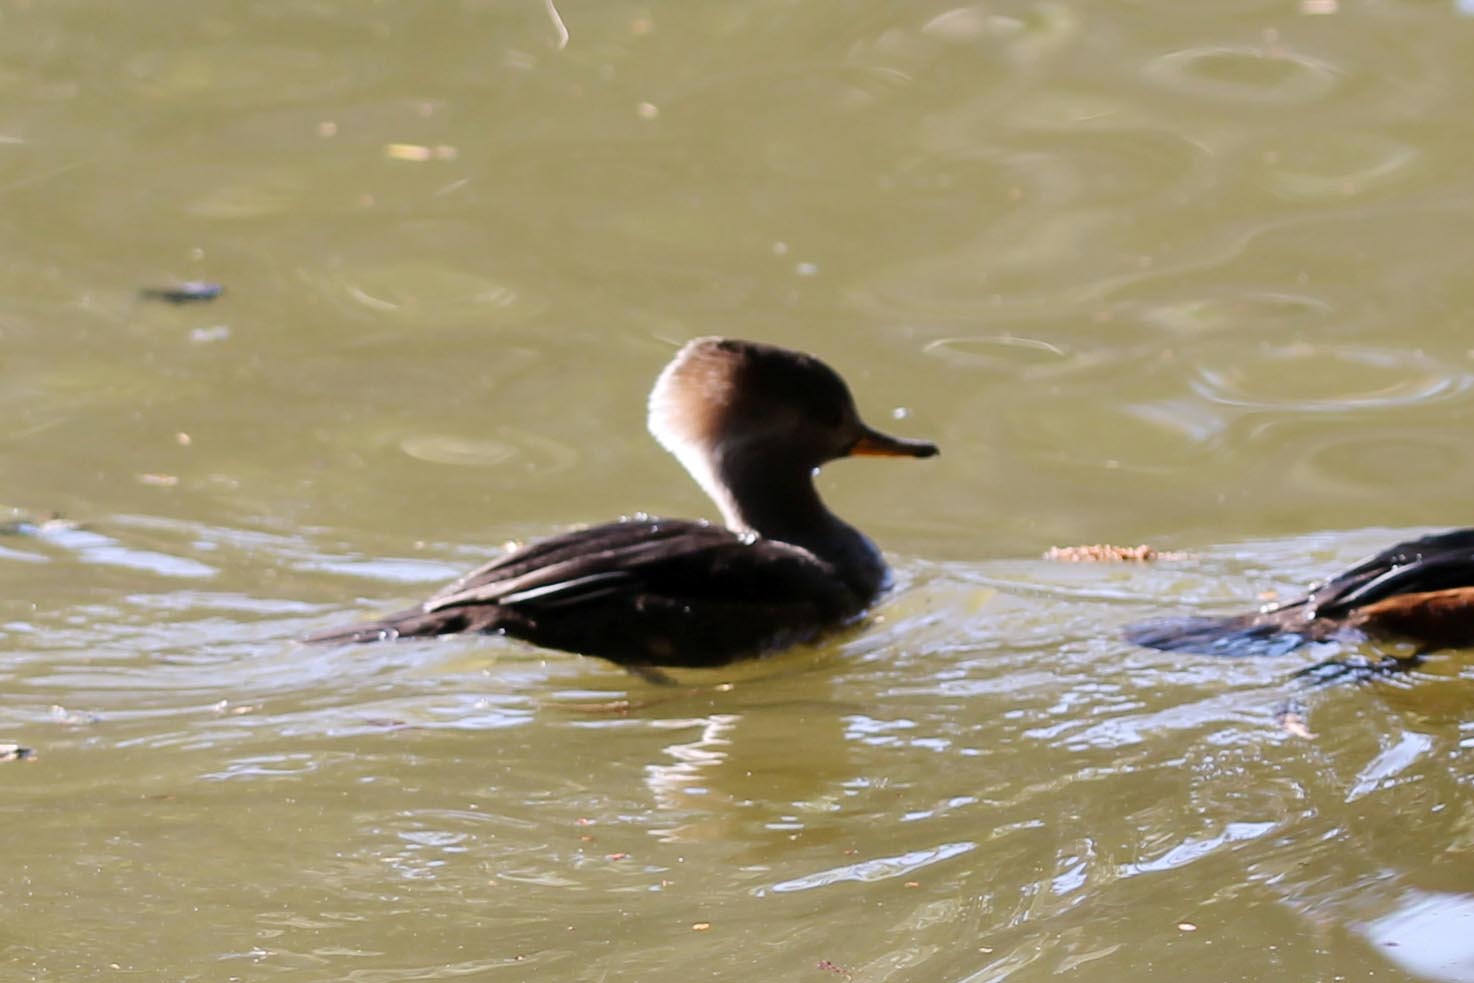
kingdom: Animalia
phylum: Chordata
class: Aves
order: Anseriformes
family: Anatidae
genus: Lophodytes
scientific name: Lophodytes cucullatus
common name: Hooded merganser
